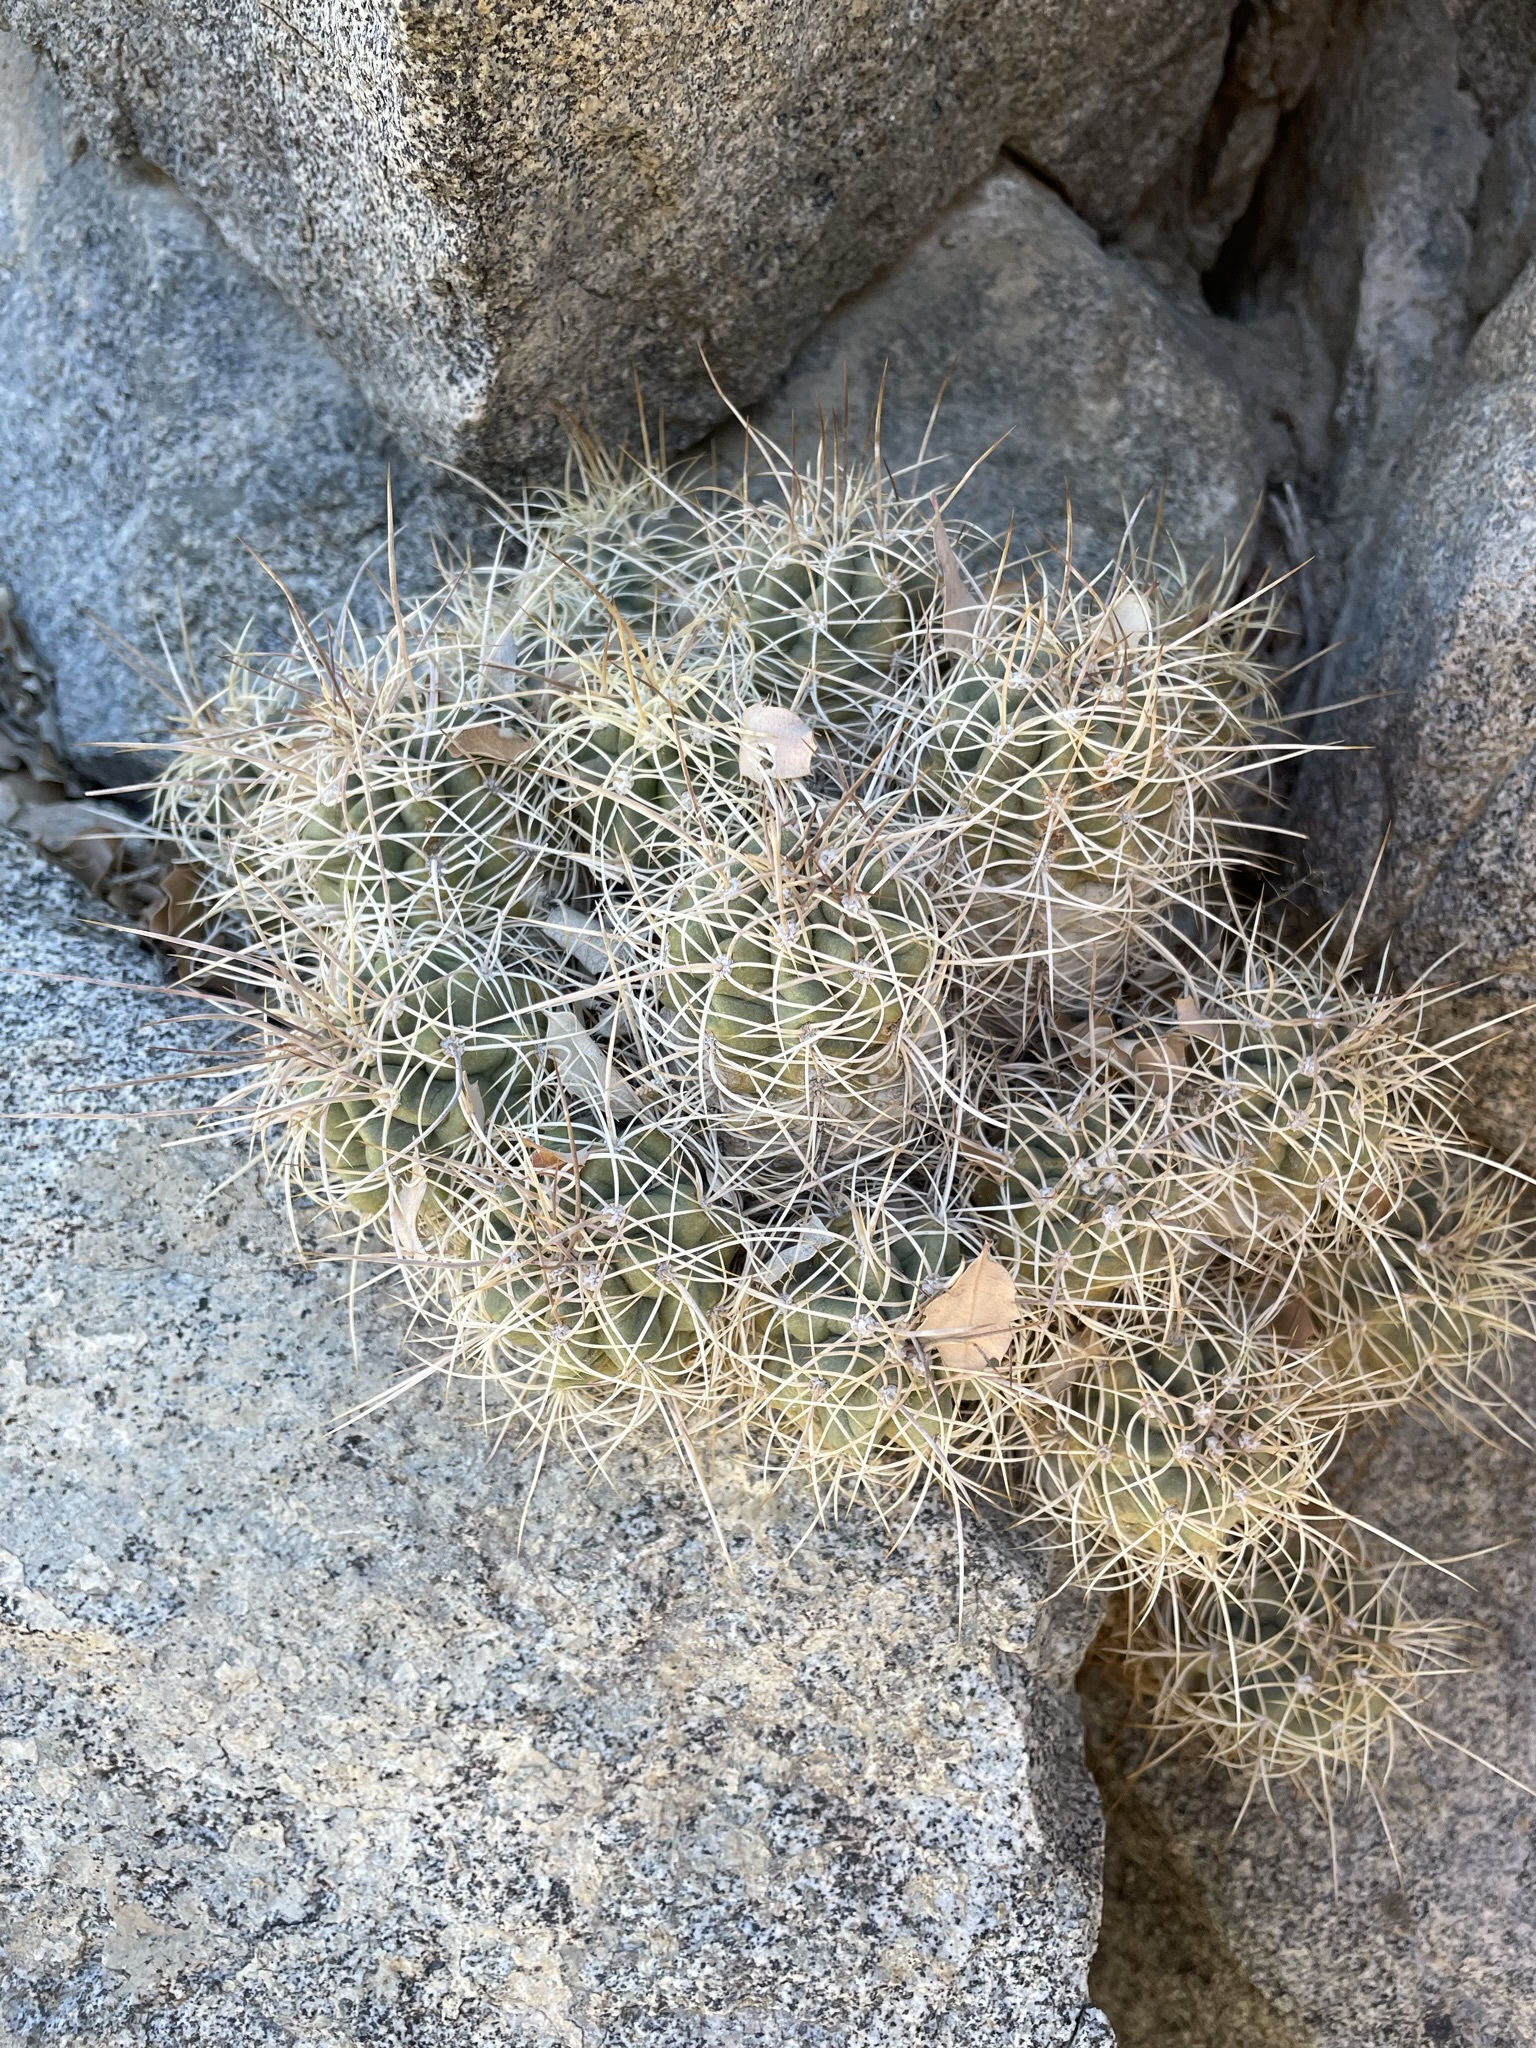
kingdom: Plantae
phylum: Tracheophyta
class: Magnoliopsida
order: Caryophyllales
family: Cactaceae
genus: Echinocereus
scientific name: Echinocereus triglochidiatus
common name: Claretcup hedgehog
